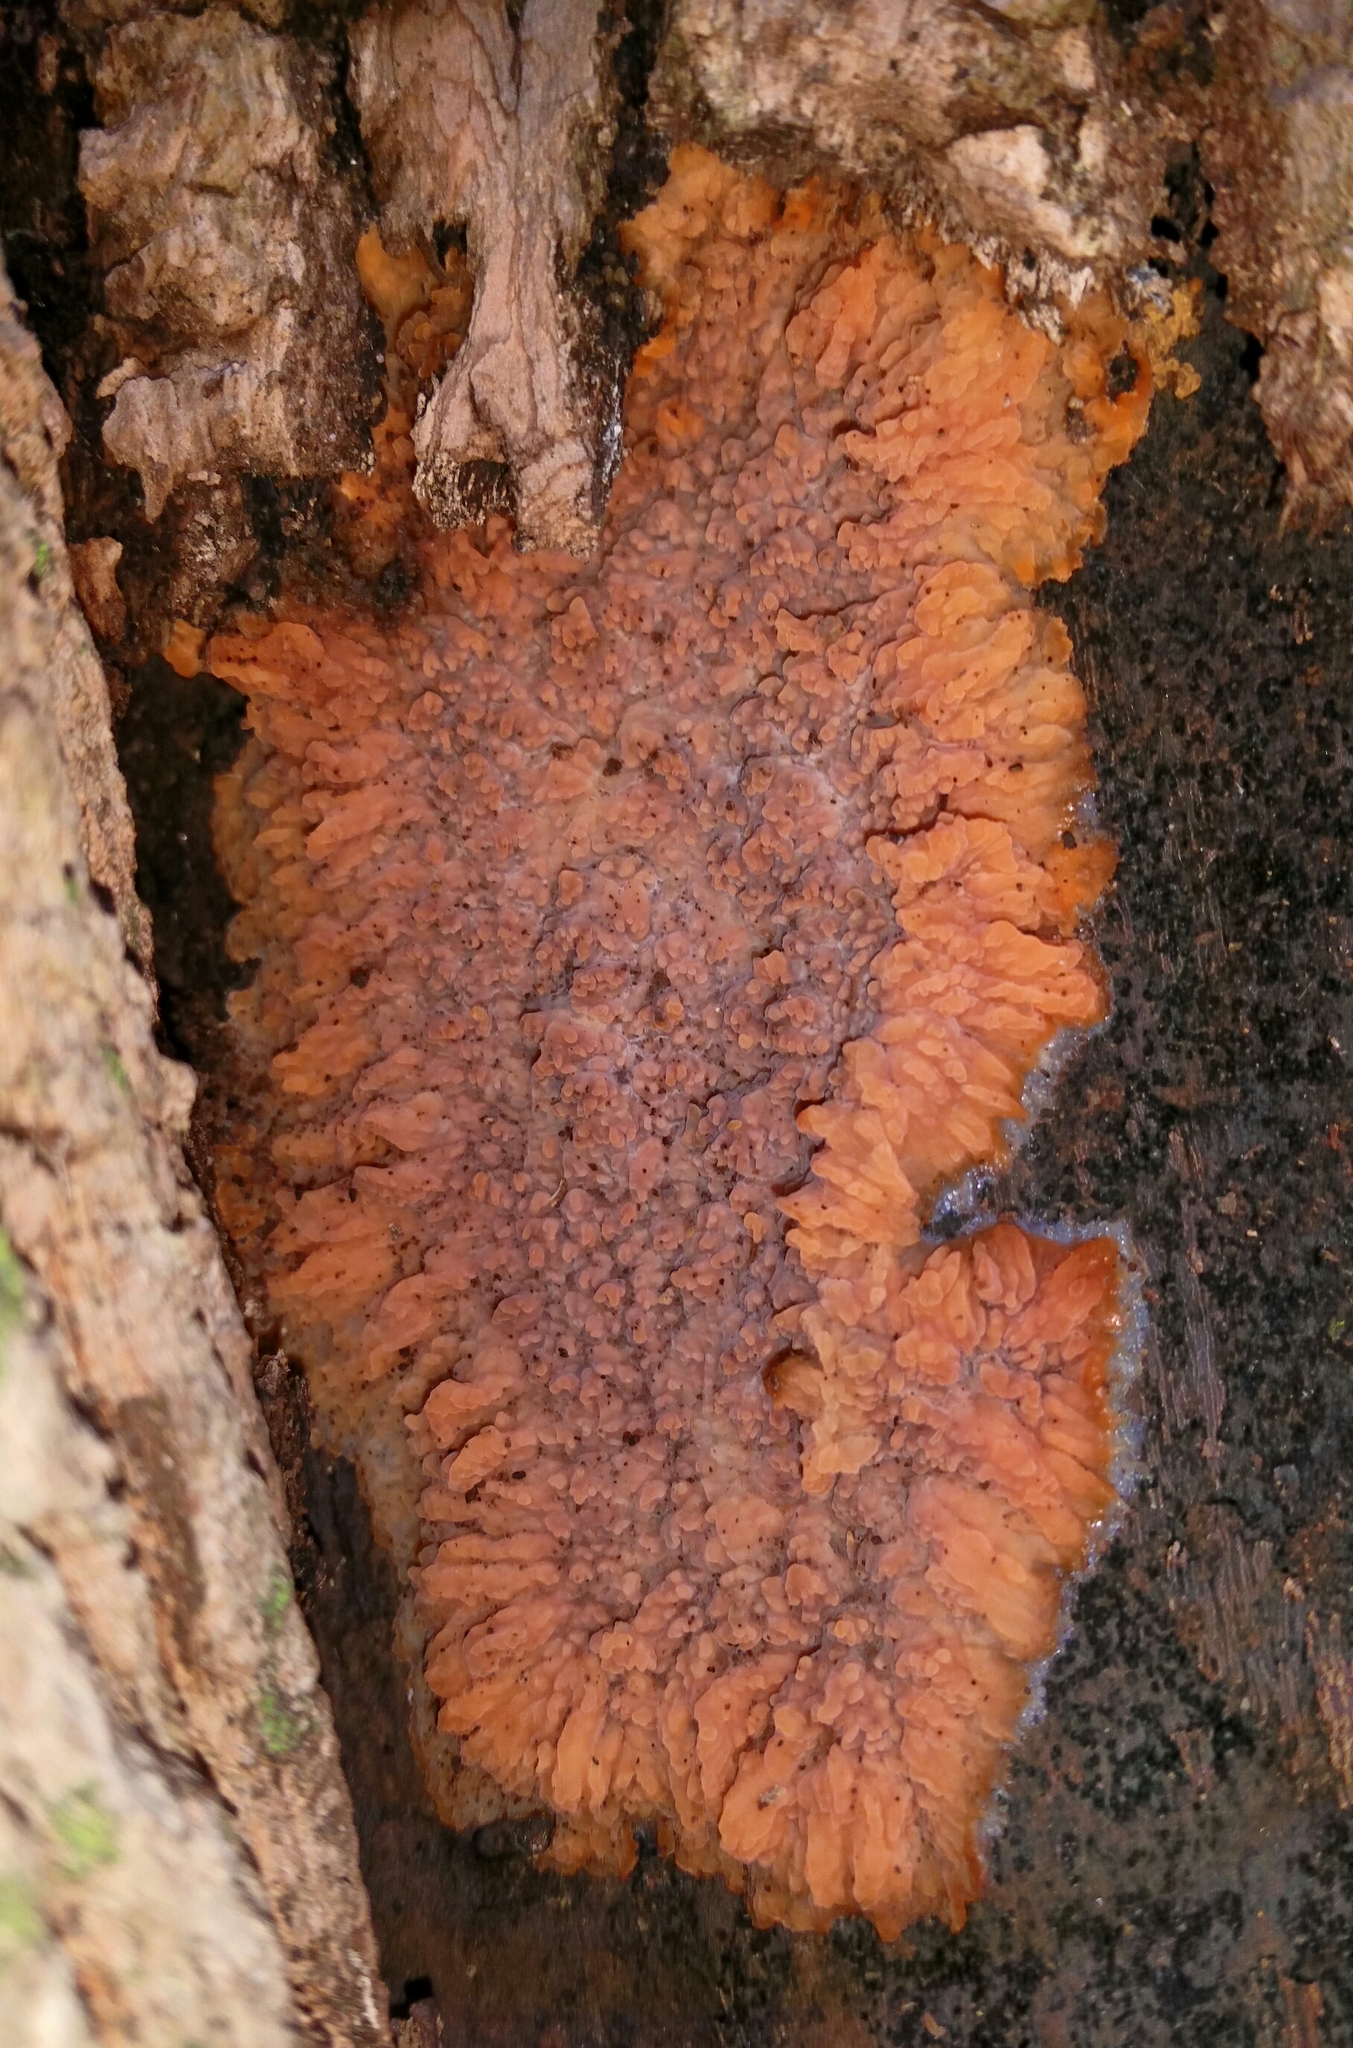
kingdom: Fungi
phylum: Basidiomycota
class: Agaricomycetes
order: Polyporales
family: Meruliaceae
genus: Phlebia
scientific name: Phlebia radiata
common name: Wrinkled crust
